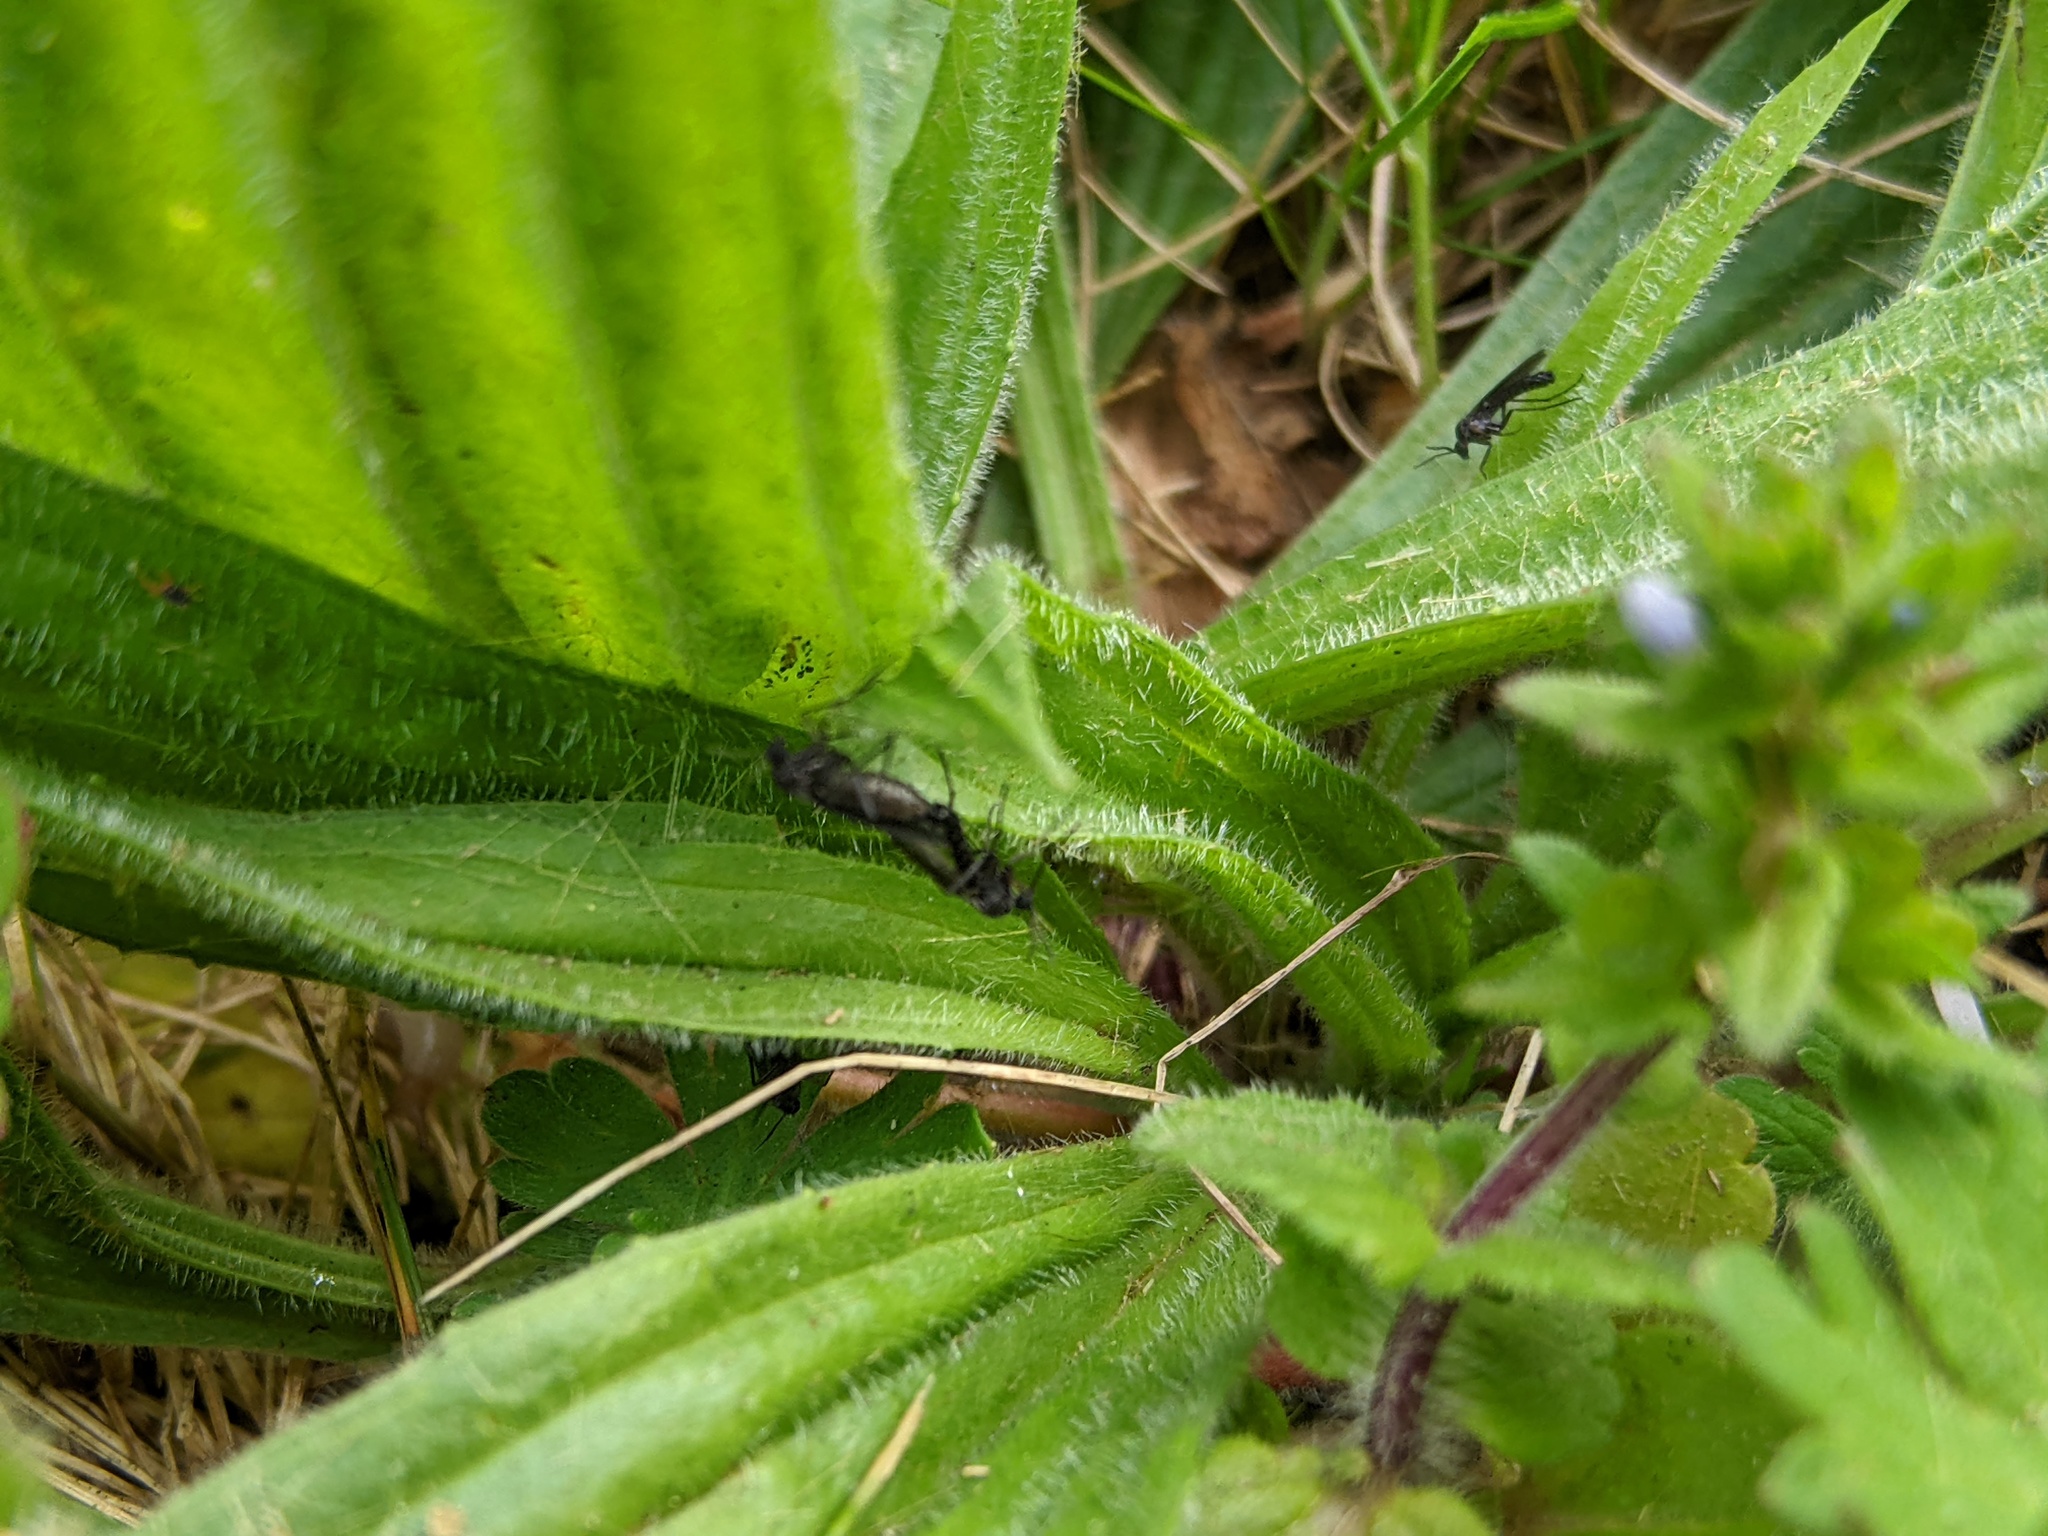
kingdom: Plantae
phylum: Tracheophyta
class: Magnoliopsida
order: Lamiales
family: Plantaginaceae
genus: Plantago
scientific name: Plantago lanceolata
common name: Ribwort plantain
